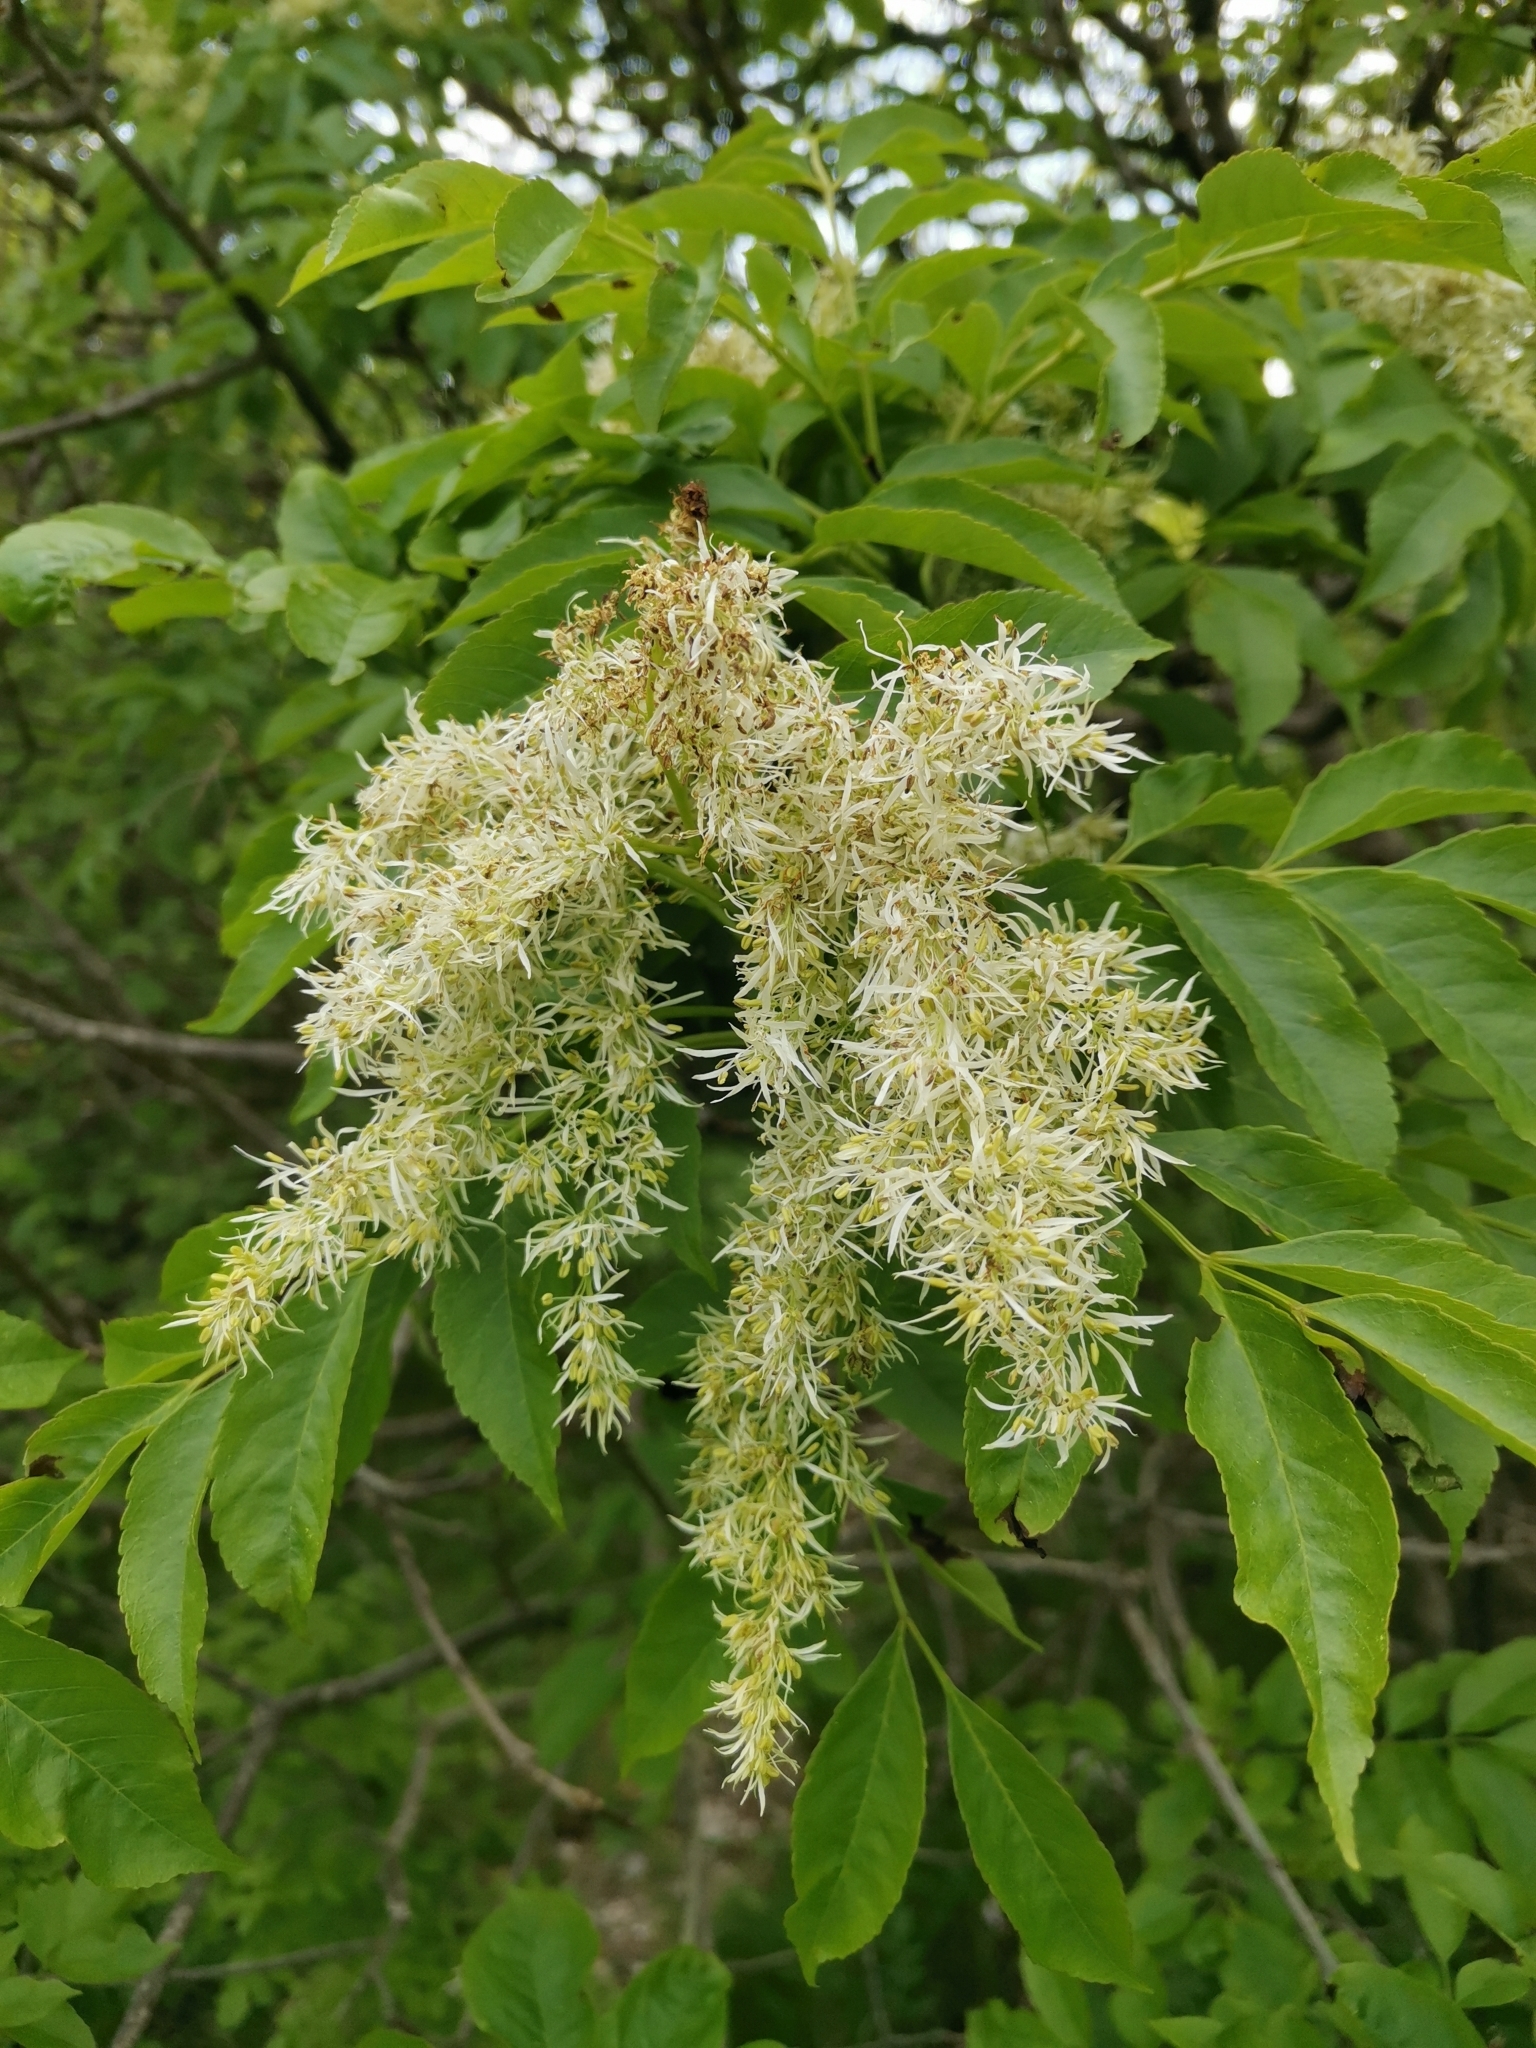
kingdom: Plantae
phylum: Tracheophyta
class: Magnoliopsida
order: Lamiales
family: Oleaceae
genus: Fraxinus
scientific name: Fraxinus ornus
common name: Manna ash
